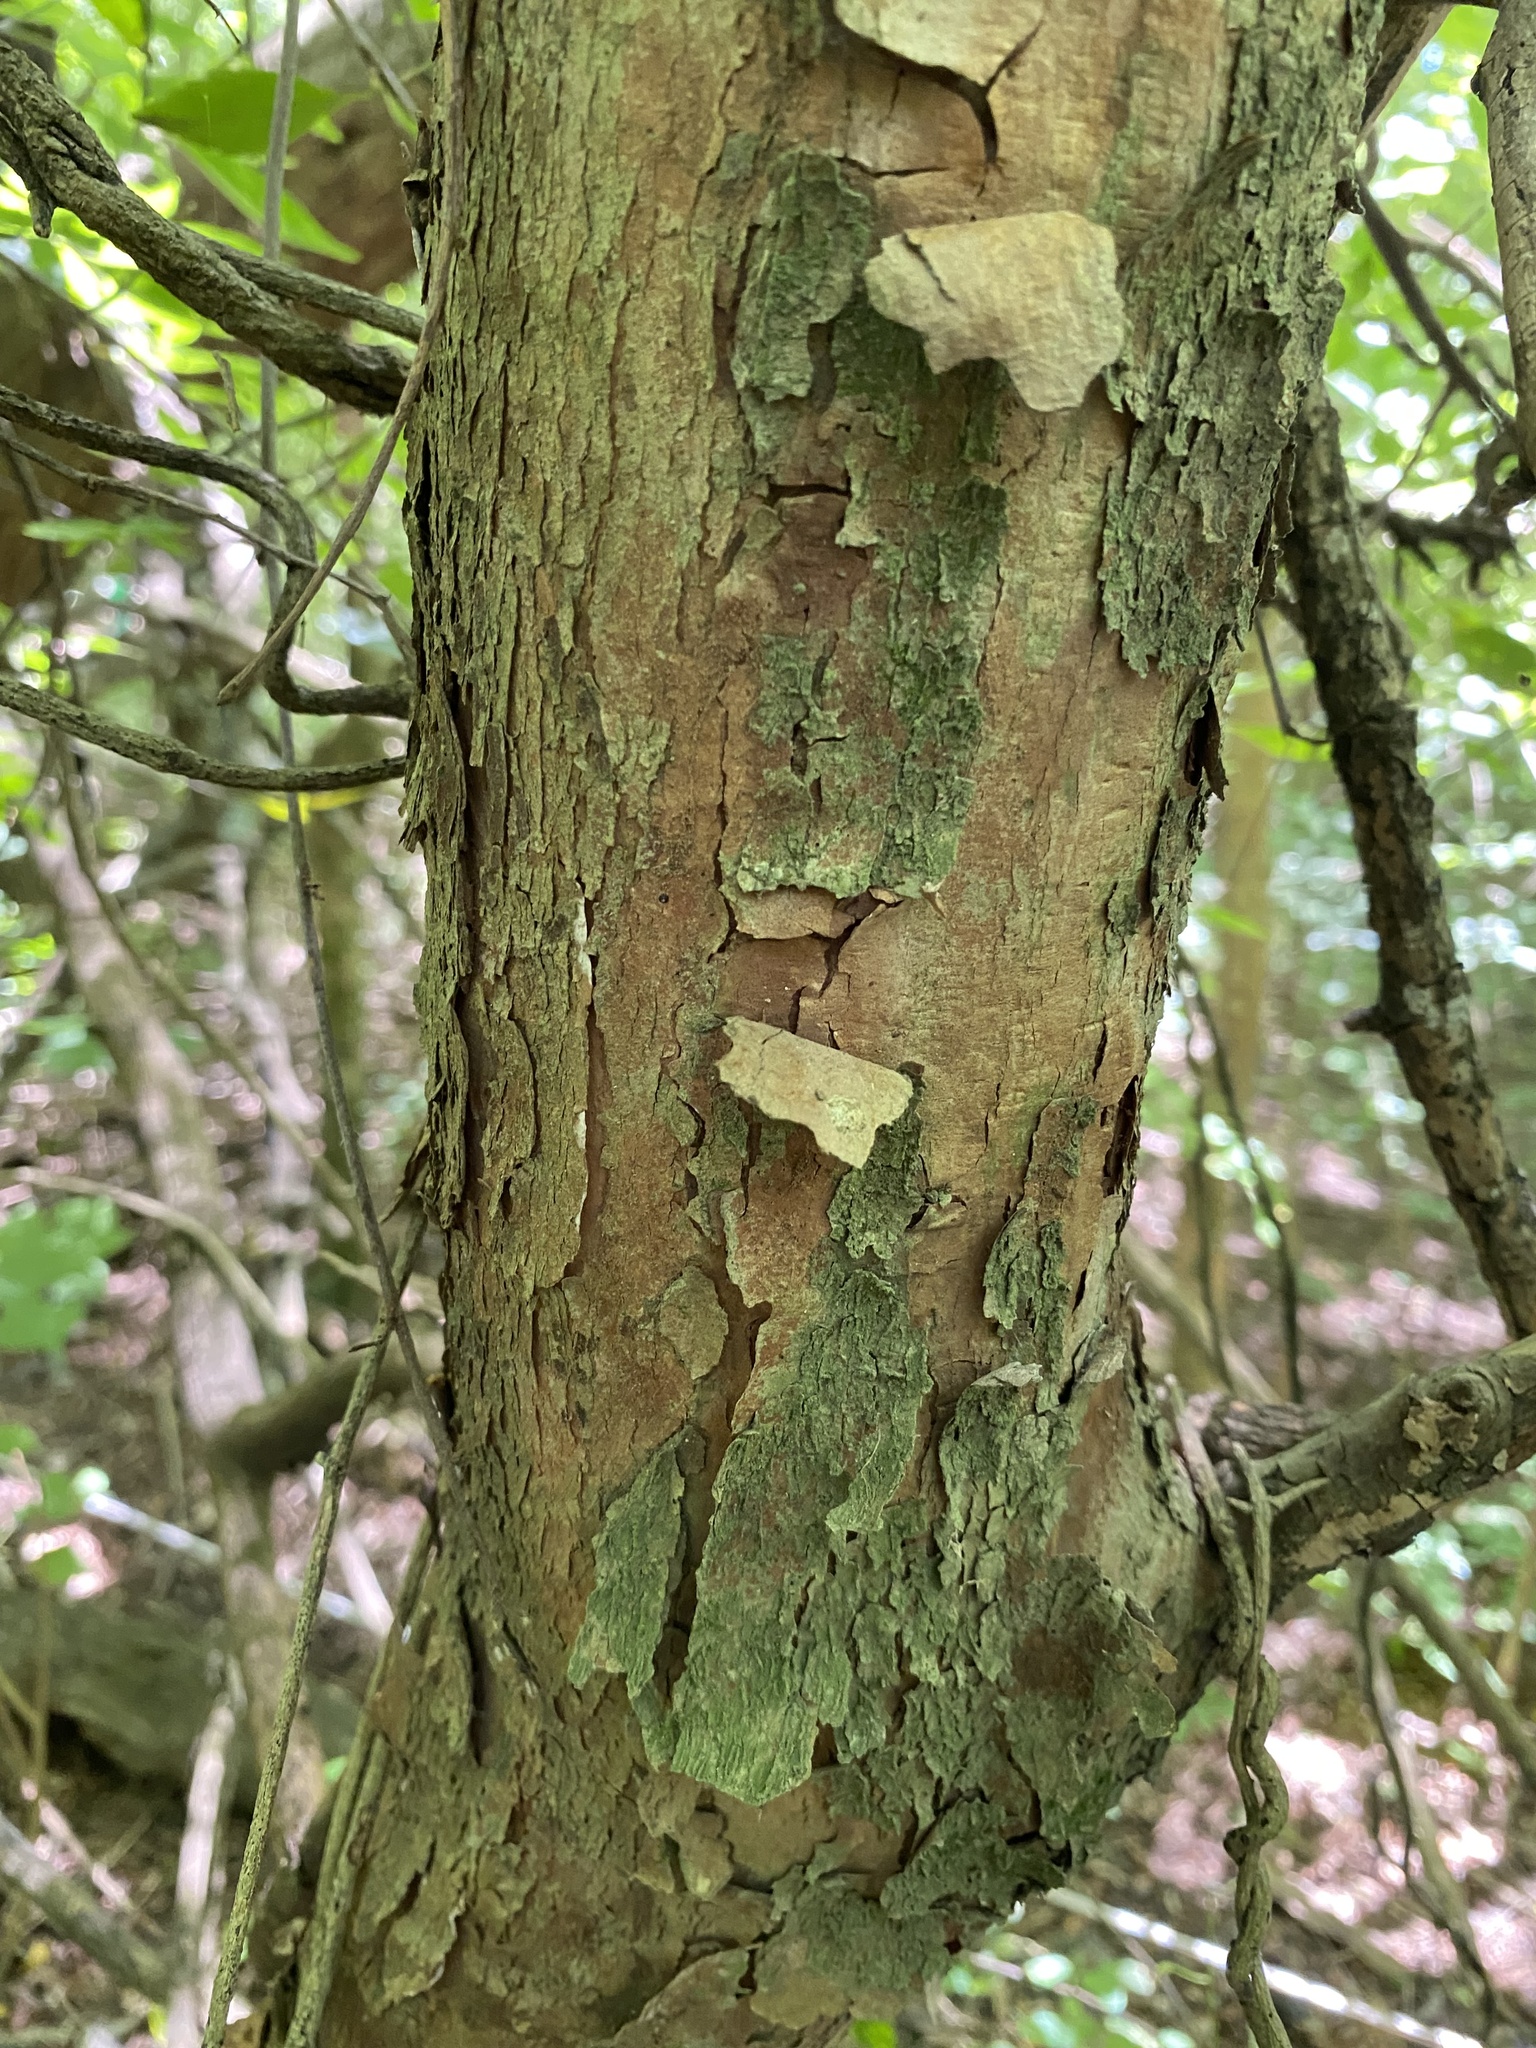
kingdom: Plantae
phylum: Tracheophyta
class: Magnoliopsida
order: Sapindales
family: Sapindaceae
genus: Allophylus
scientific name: Allophylus edulis
